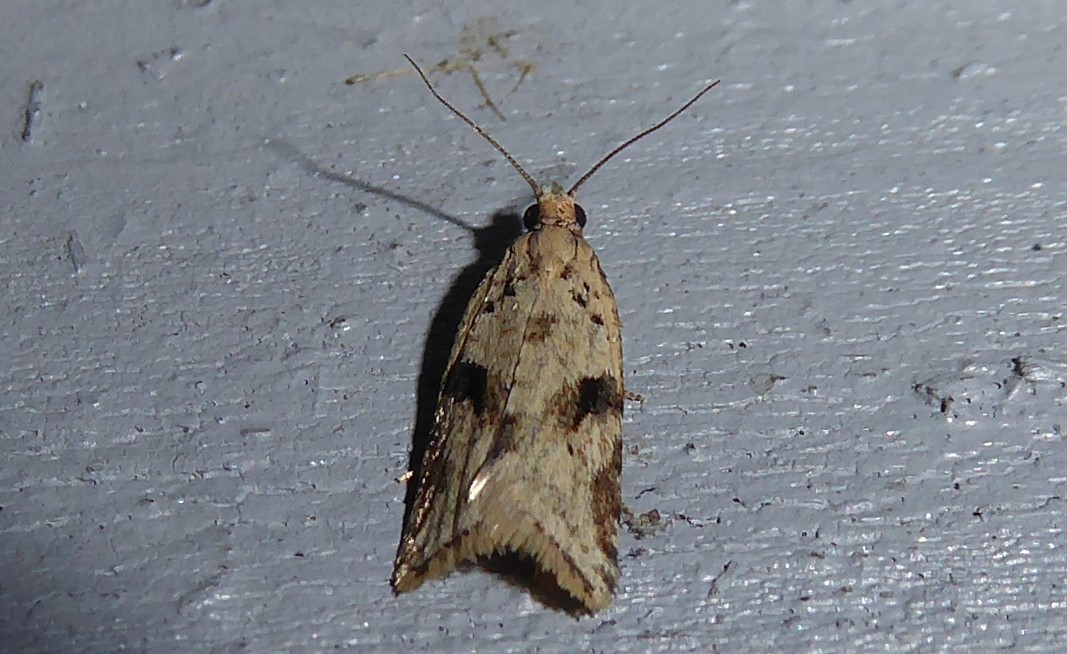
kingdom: Animalia
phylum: Arthropoda
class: Insecta
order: Lepidoptera
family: Tortricidae
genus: Capua
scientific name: Capua semiferana
